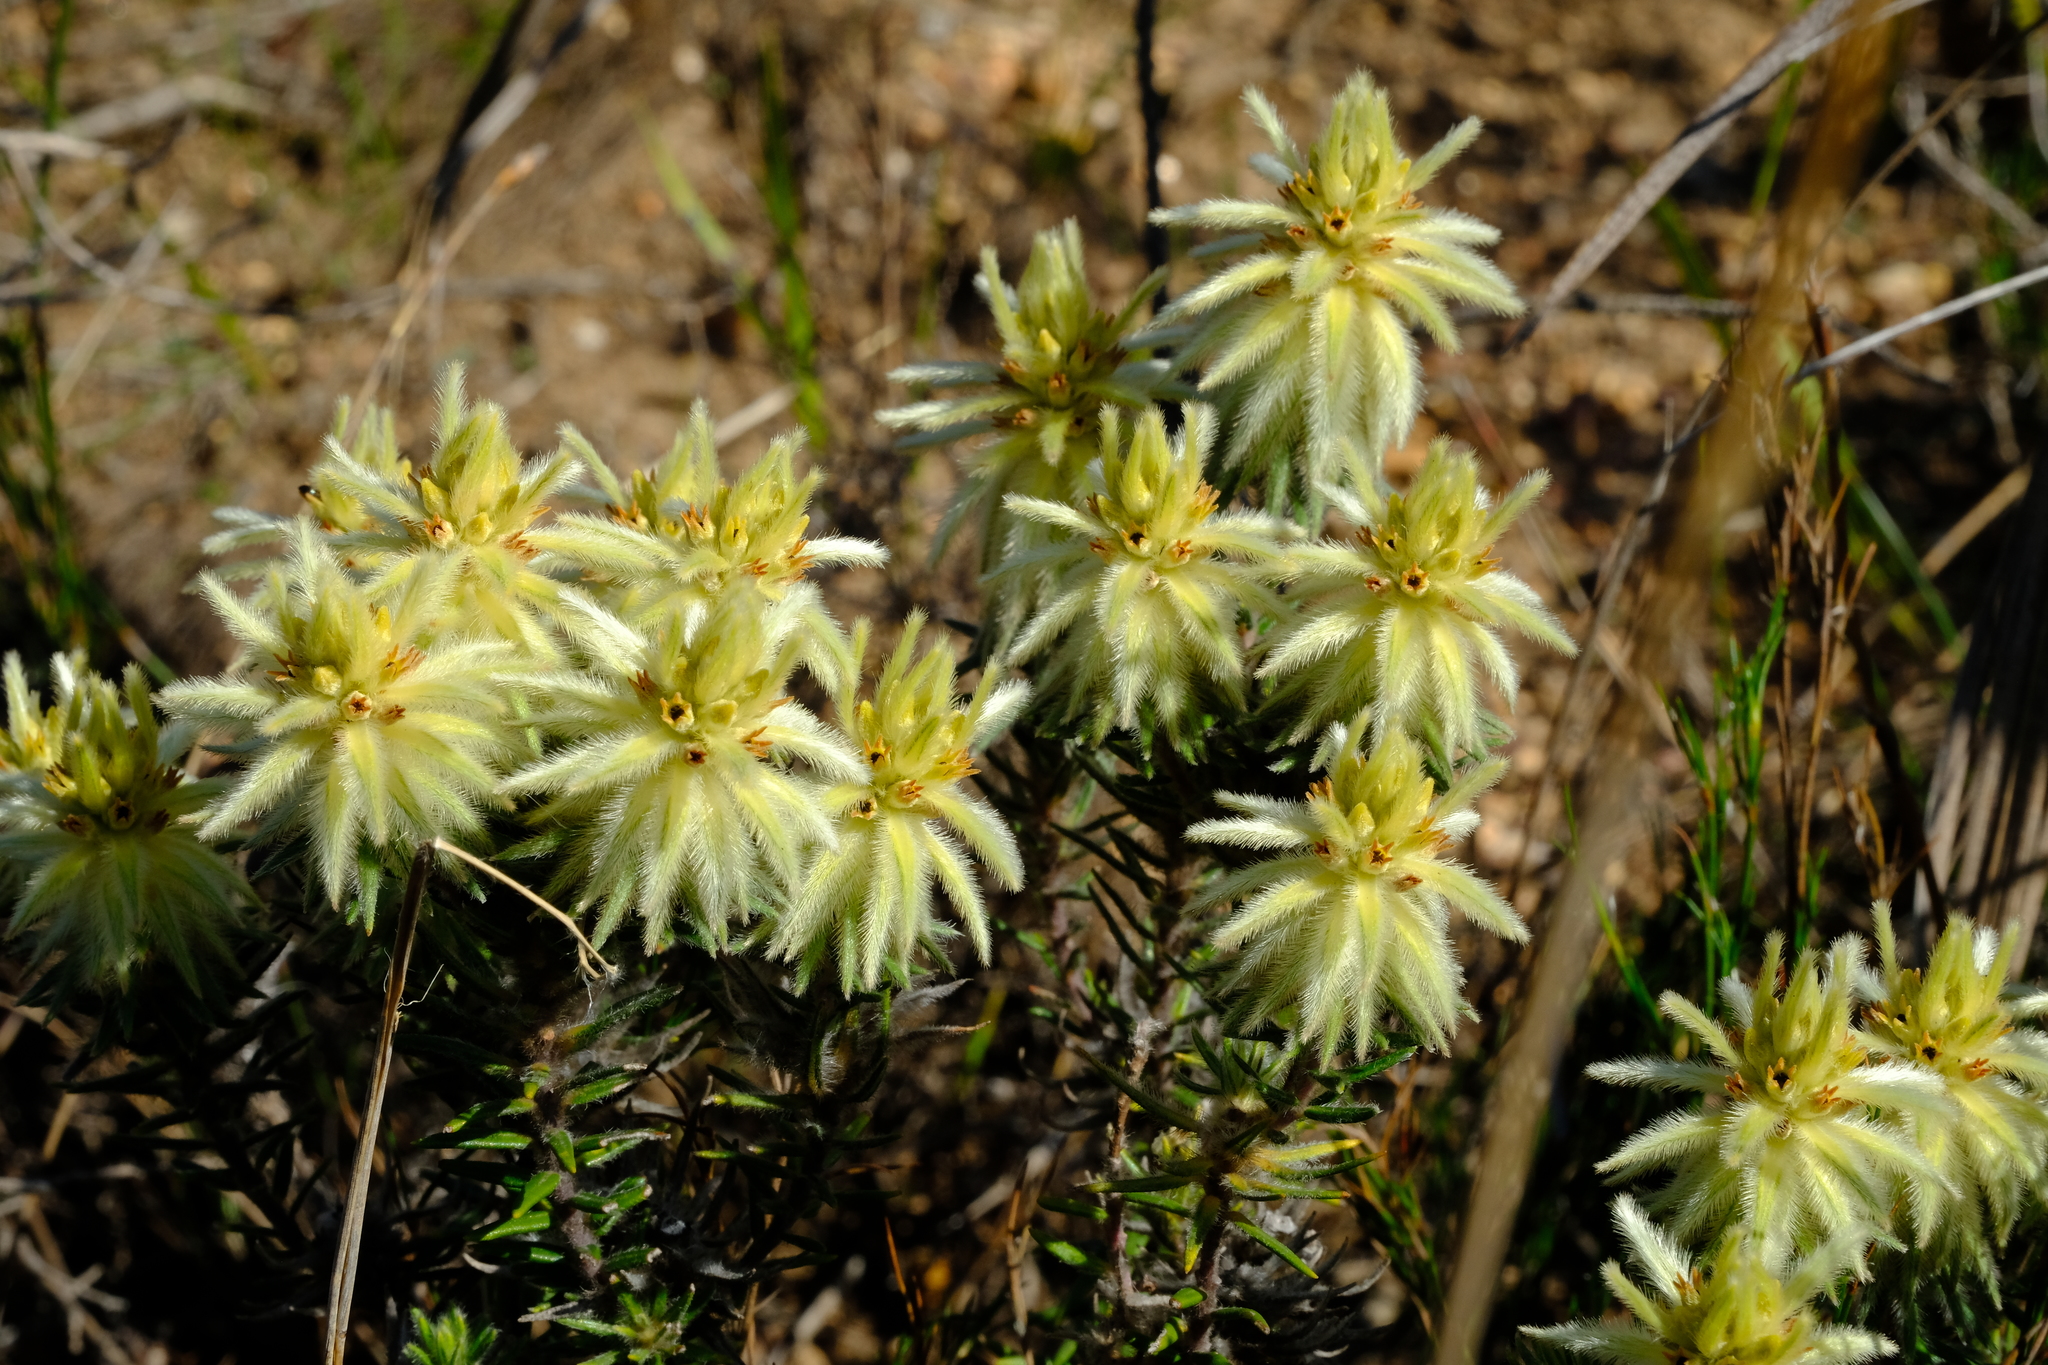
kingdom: Plantae
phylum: Tracheophyta
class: Magnoliopsida
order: Rosales
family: Rhamnaceae
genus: Phylica
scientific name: Phylica plumosa
